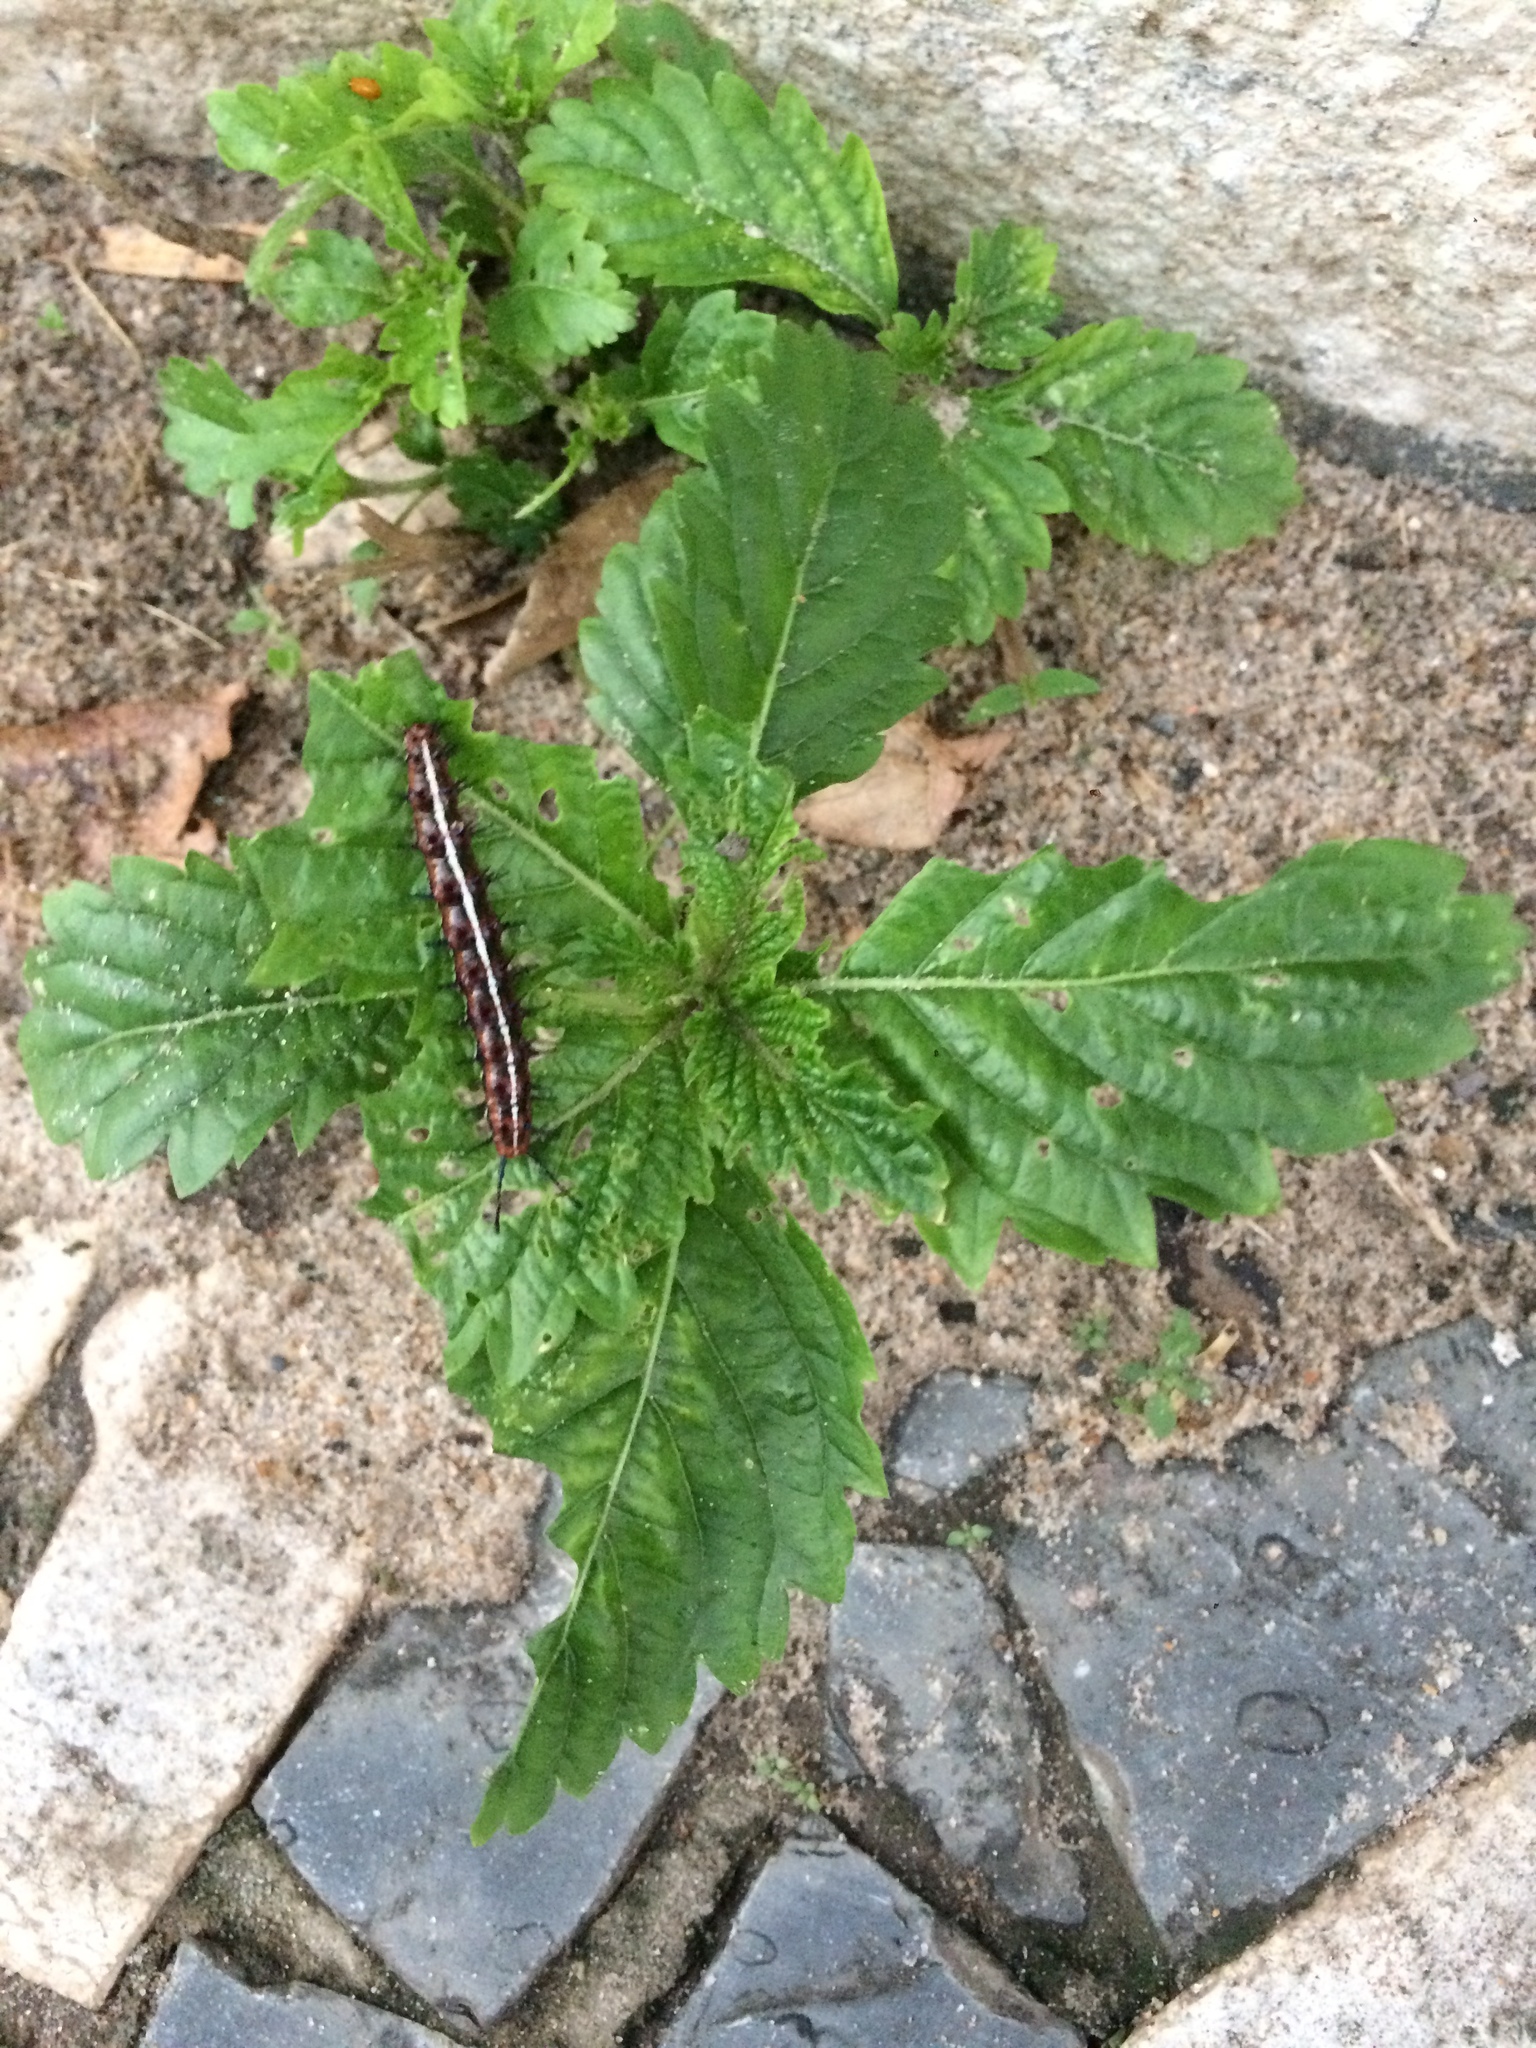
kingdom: Animalia
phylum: Arthropoda
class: Insecta
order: Lepidoptera
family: Nymphalidae
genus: Euptoieta
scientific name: Euptoieta hegesia
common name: Mexican fritillary
